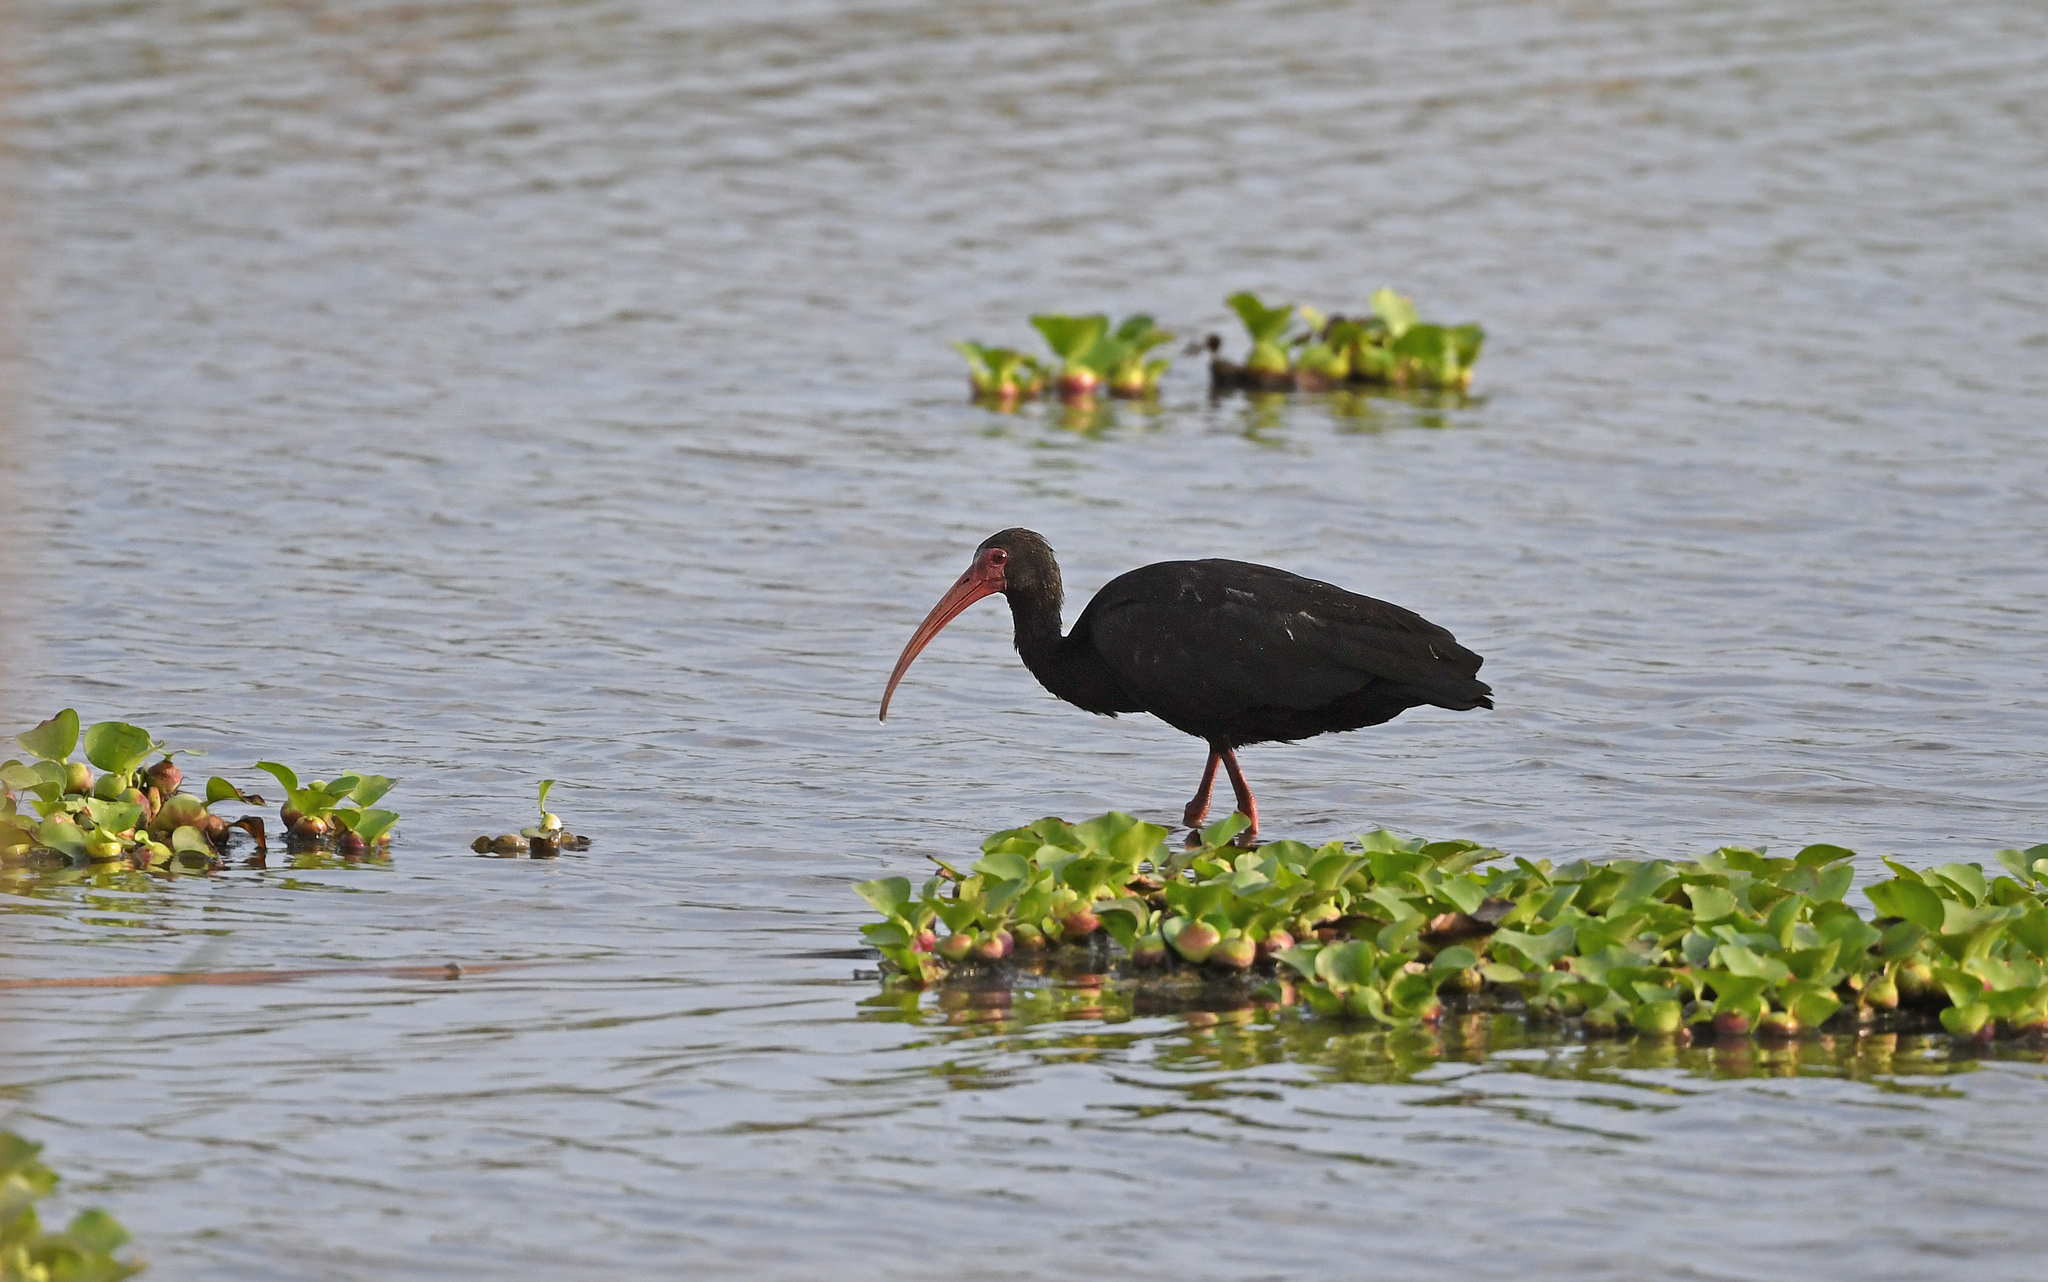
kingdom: Animalia
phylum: Chordata
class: Aves
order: Pelecaniformes
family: Threskiornithidae
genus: Phimosus
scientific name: Phimosus infuscatus
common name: Bare-faced ibis
